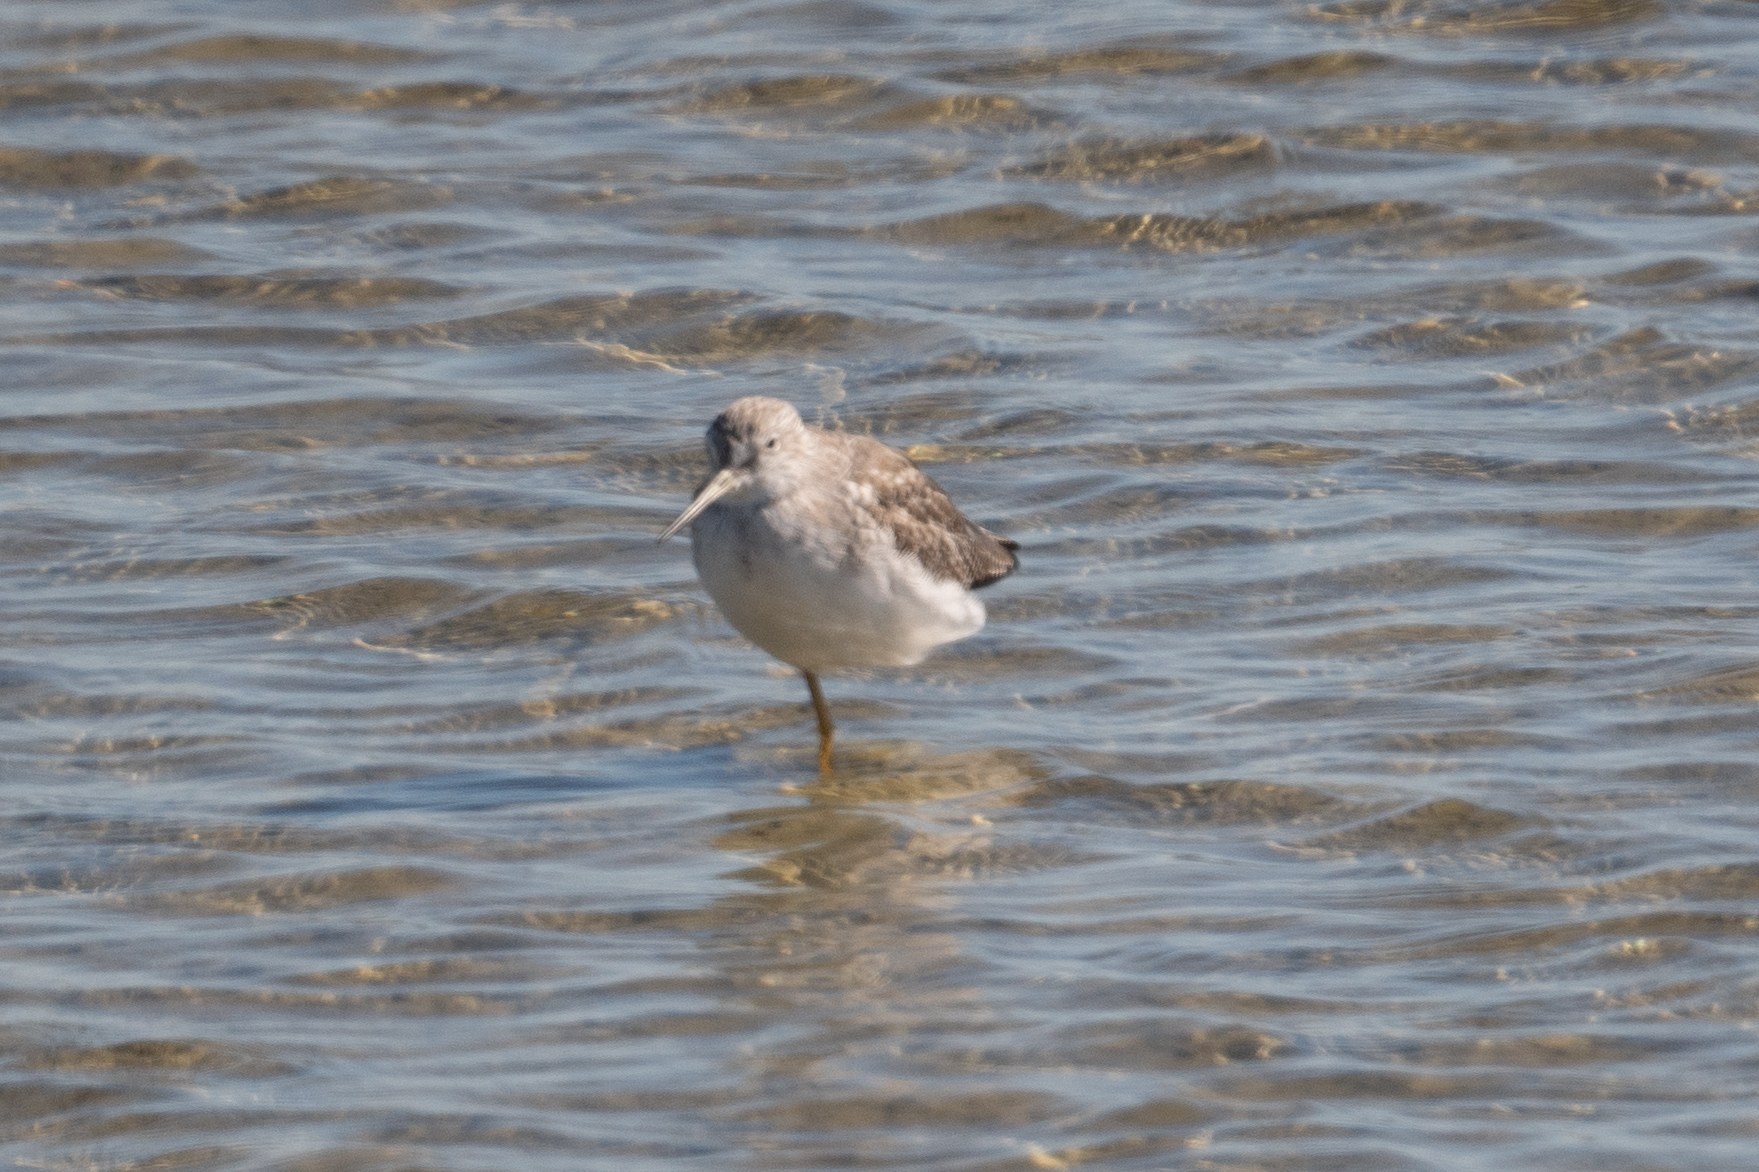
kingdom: Animalia
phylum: Chordata
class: Aves
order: Charadriiformes
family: Scolopacidae
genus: Tringa
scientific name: Tringa melanoleuca
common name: Greater yellowlegs
